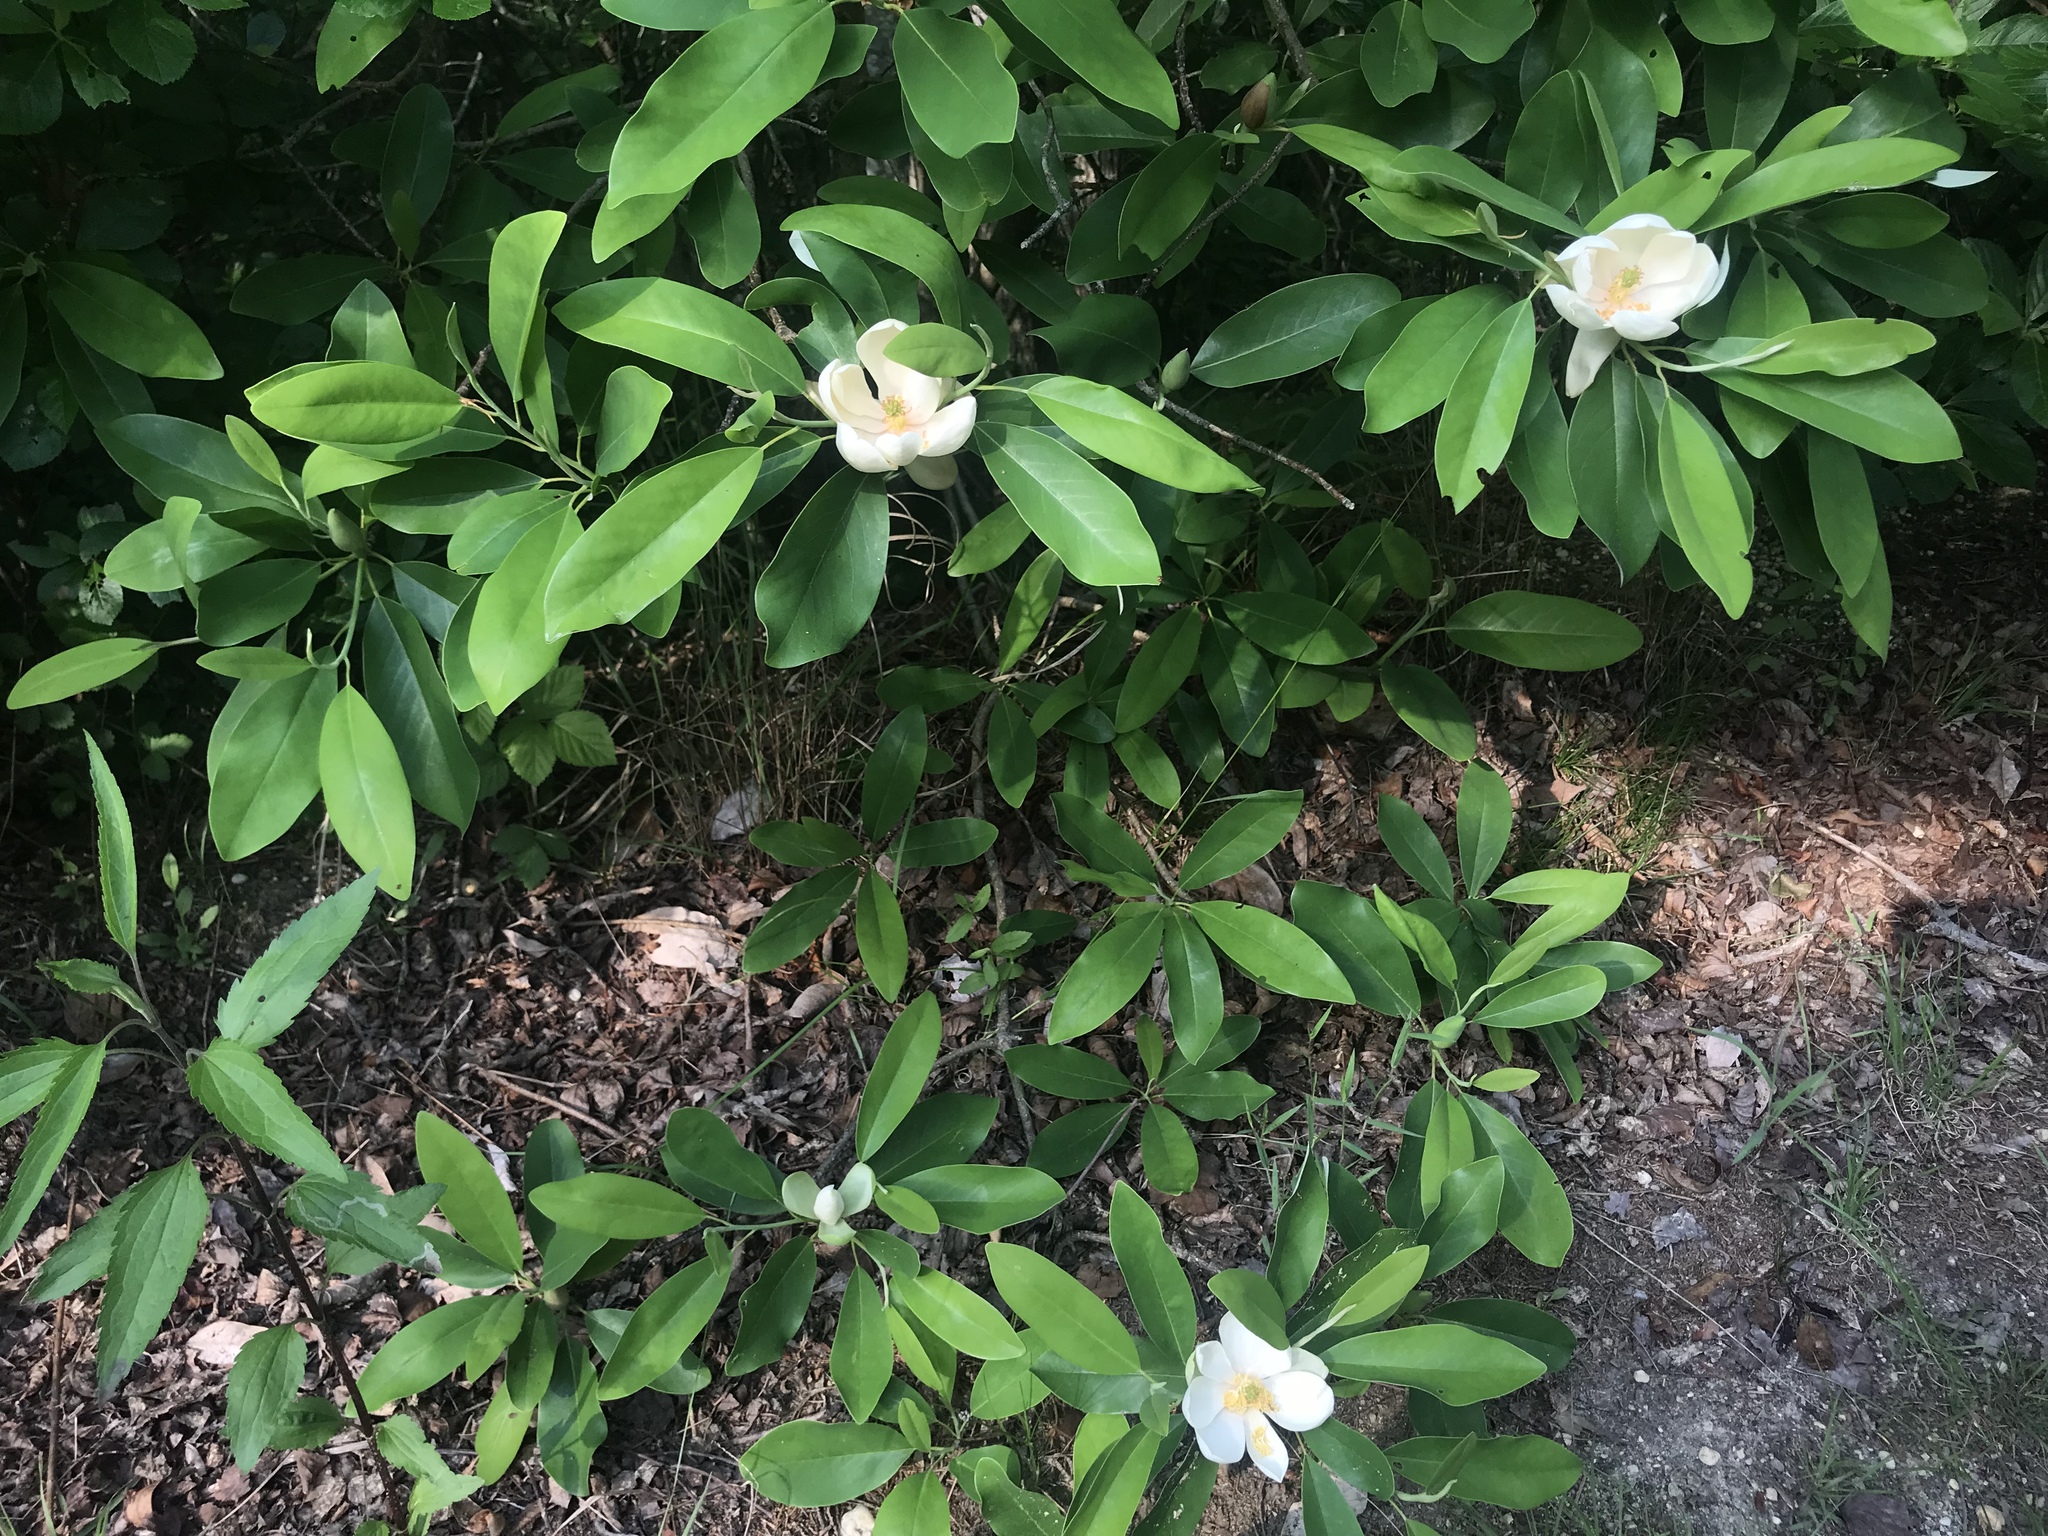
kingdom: Plantae
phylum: Tracheophyta
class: Magnoliopsida
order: Magnoliales
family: Magnoliaceae
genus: Magnolia
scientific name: Magnolia virginiana
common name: Swamp bay
